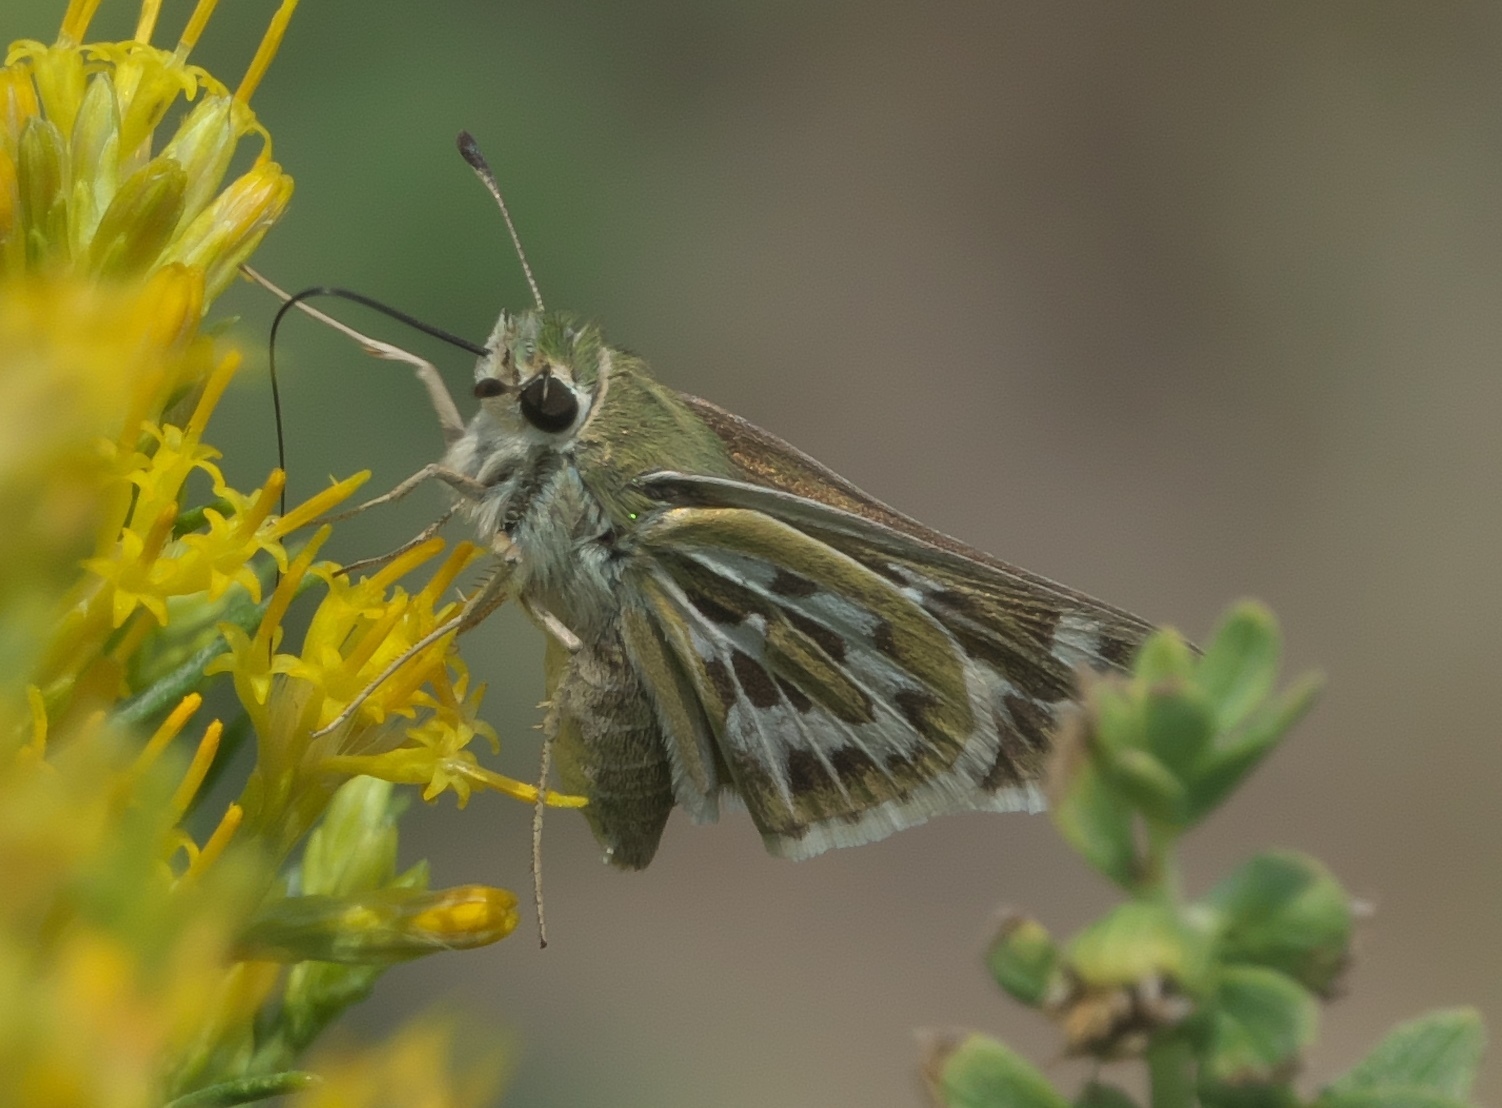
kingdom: Animalia
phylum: Arthropoda
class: Insecta
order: Lepidoptera
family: Hesperiidae
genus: Hesperia
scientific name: Hesperia uncas
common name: Uncas skipper
